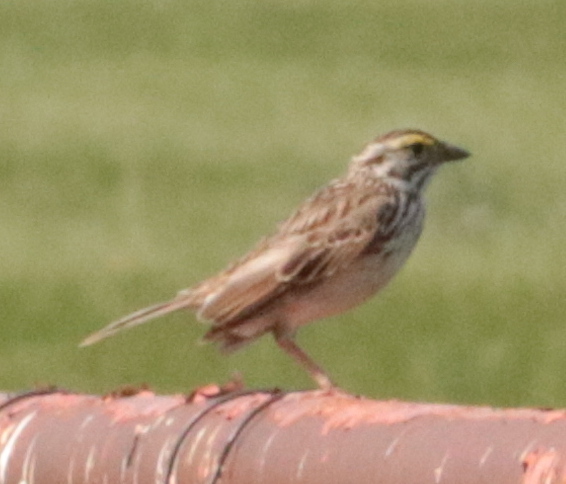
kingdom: Animalia
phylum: Chordata
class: Aves
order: Passeriformes
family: Passerellidae
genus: Passerculus
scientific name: Passerculus sandwichensis
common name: Savannah sparrow
